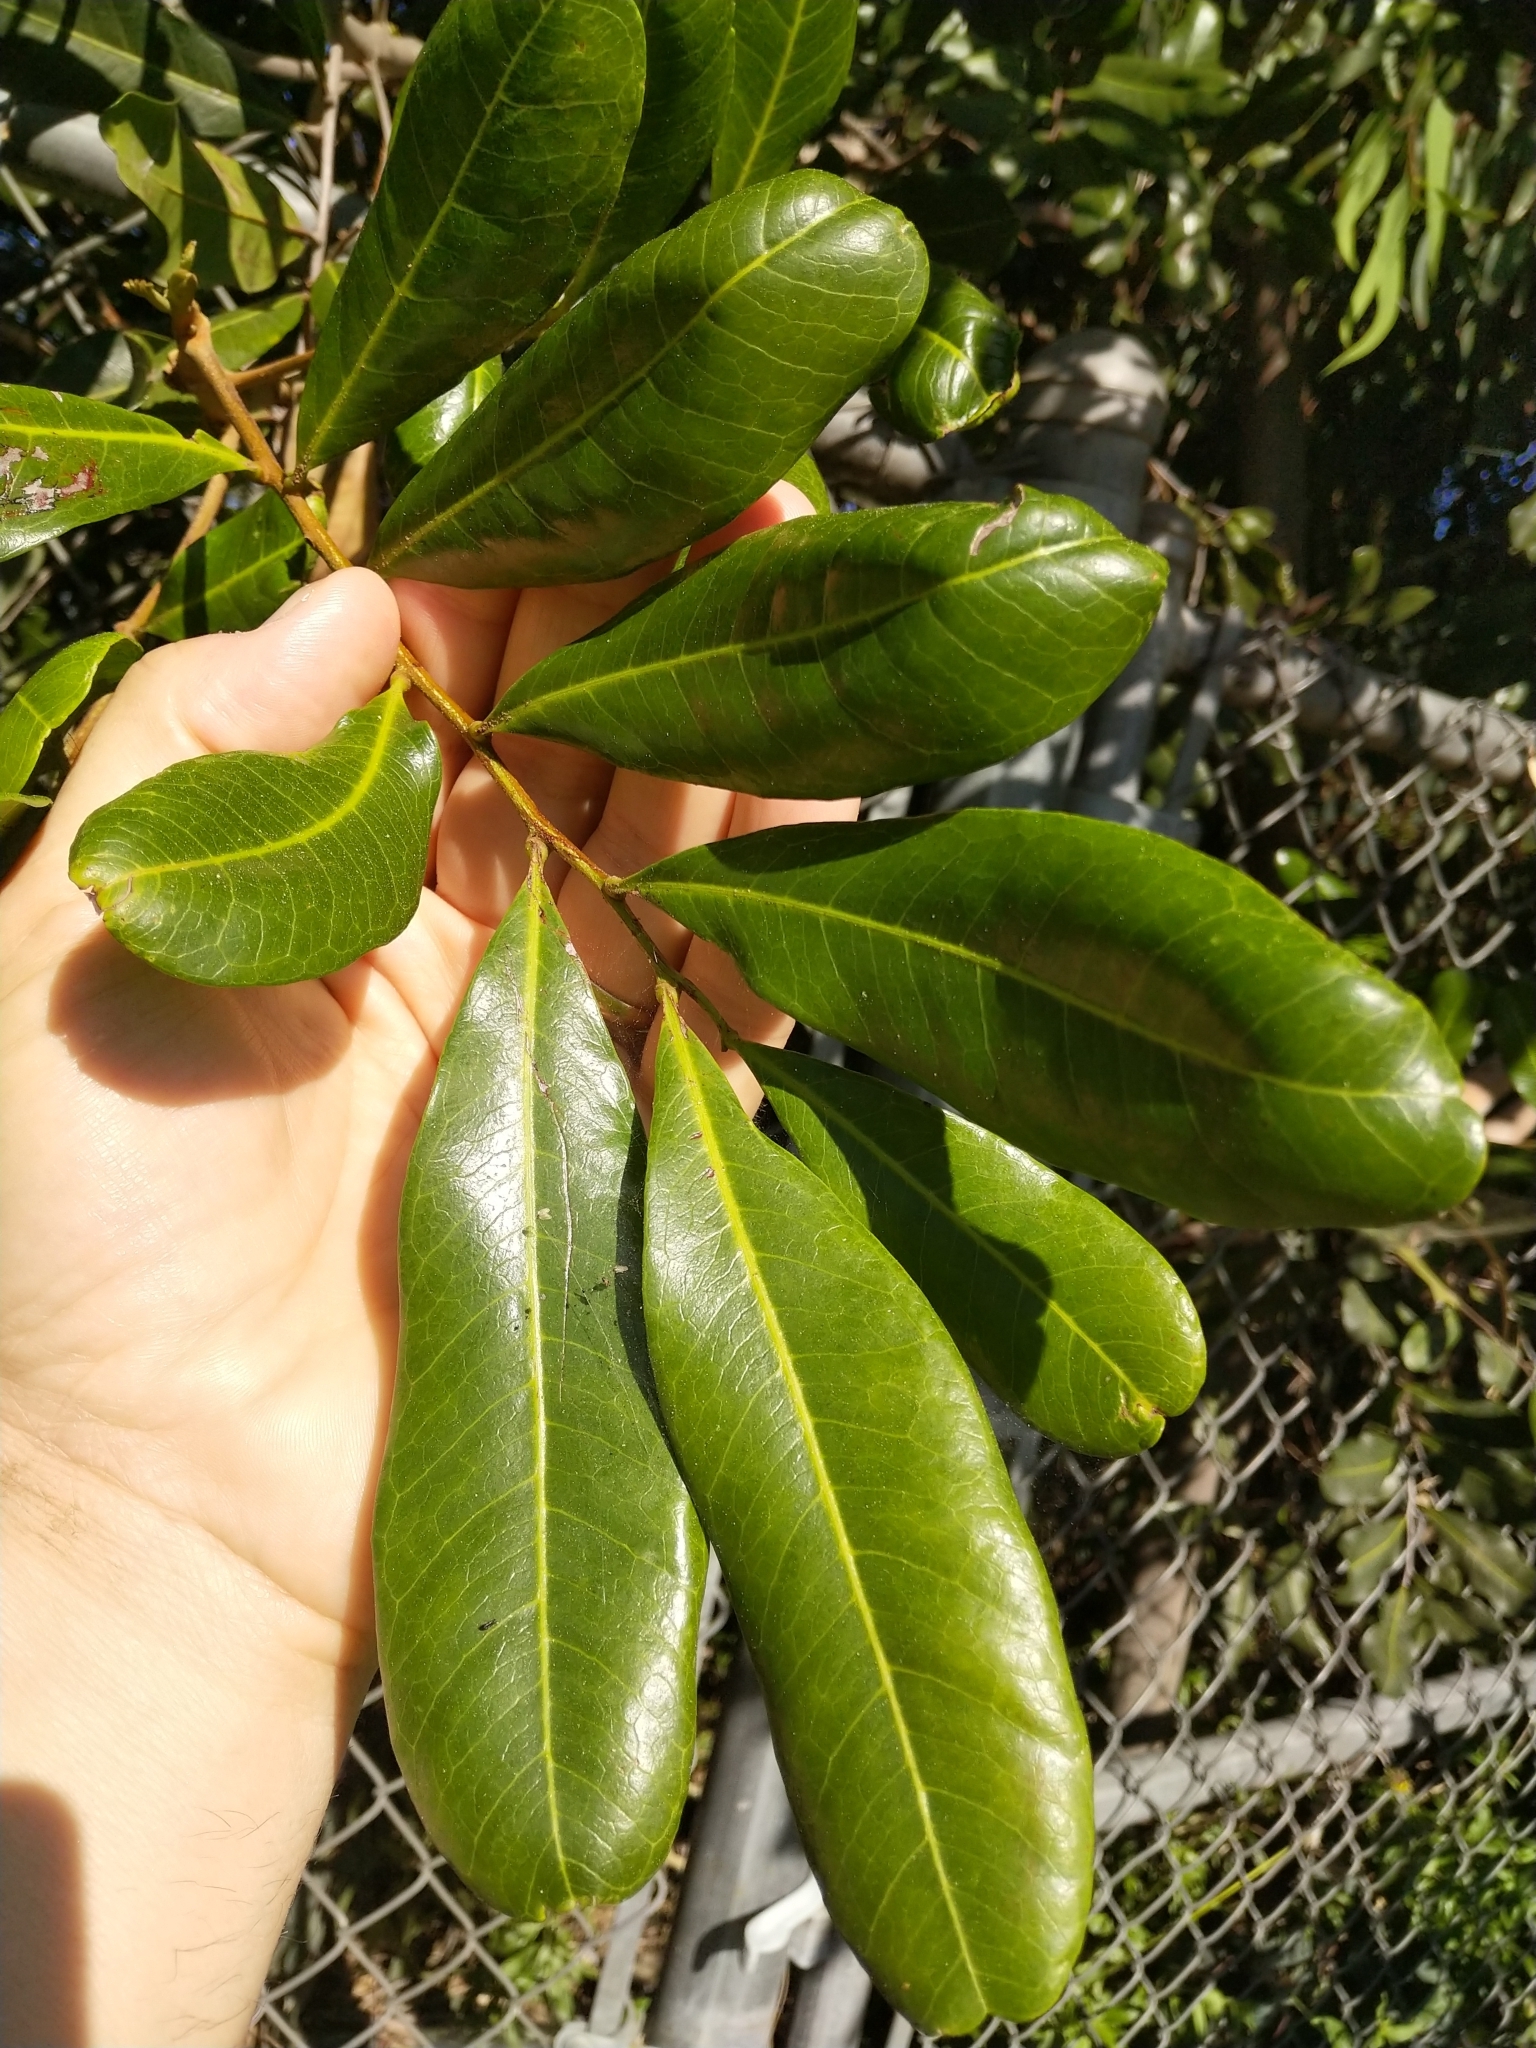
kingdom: Plantae
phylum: Tracheophyta
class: Magnoliopsida
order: Sapindales
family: Sapindaceae
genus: Cupaniopsis
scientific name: Cupaniopsis anacardioides
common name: Carrotwood
